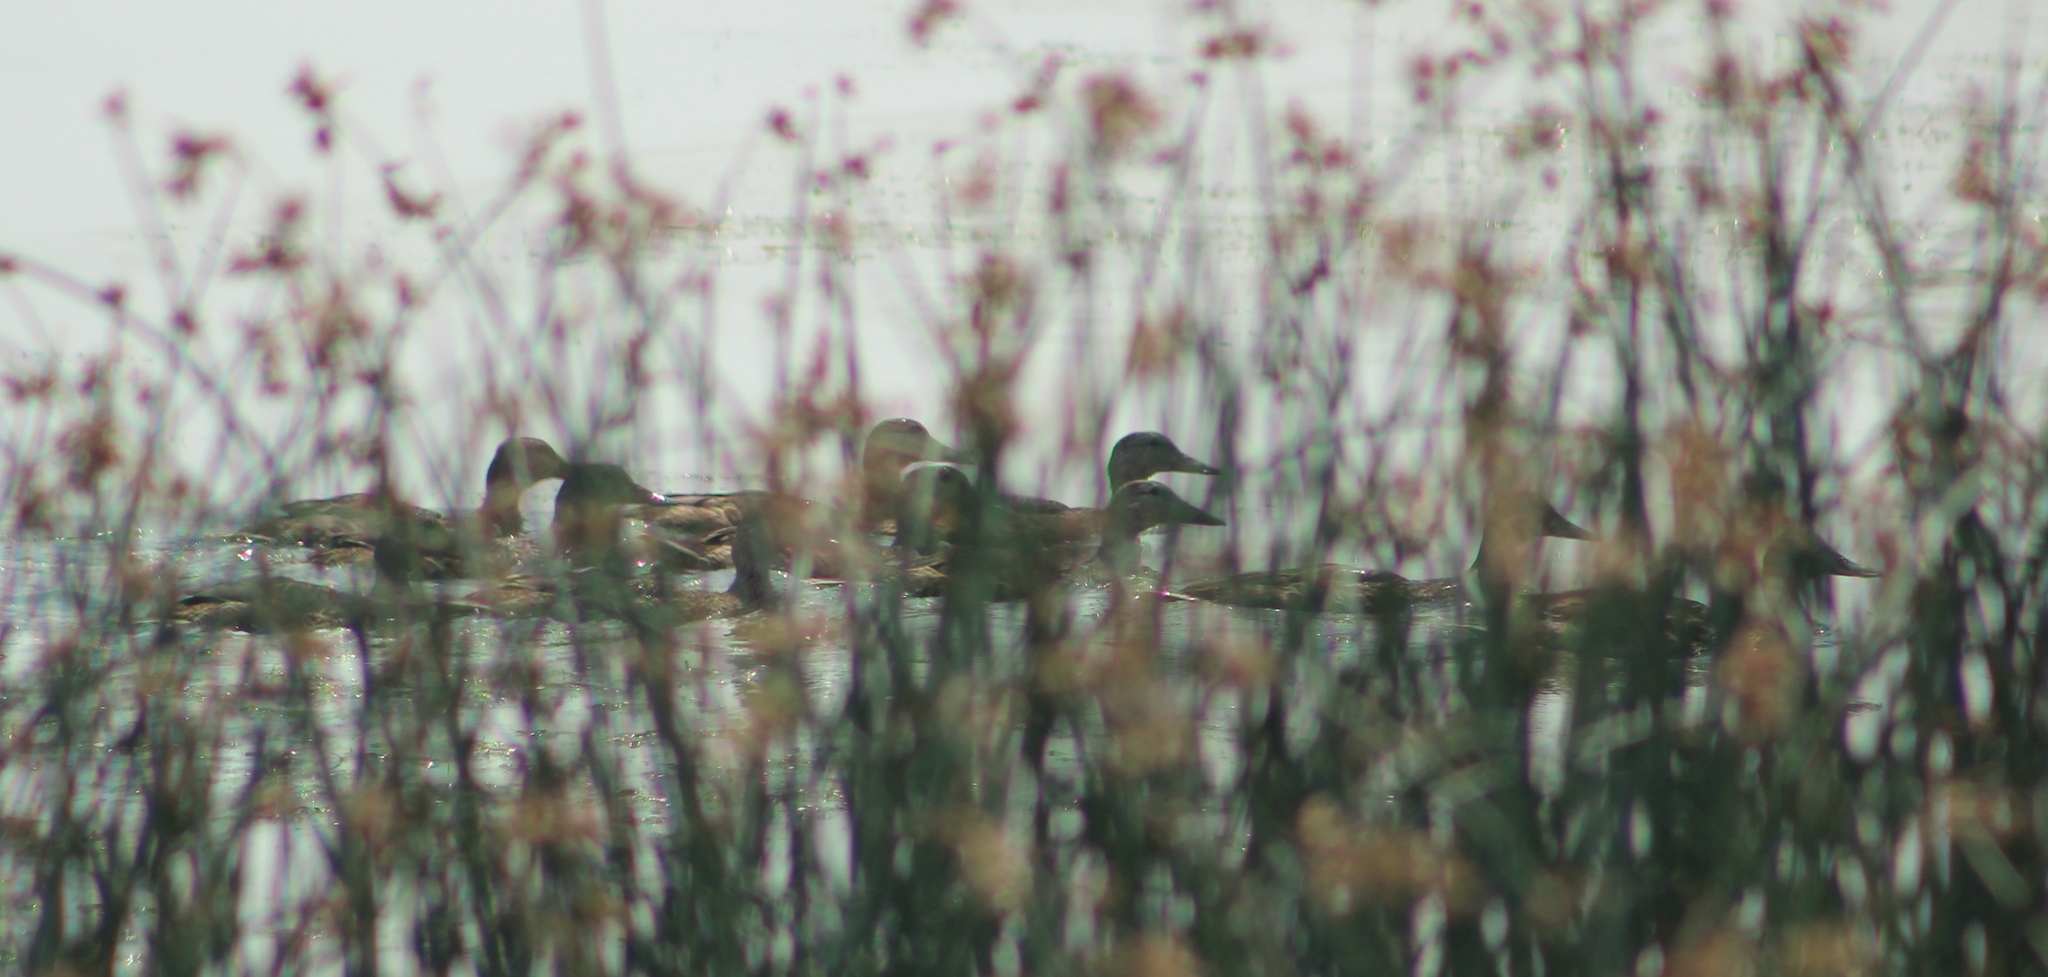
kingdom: Animalia
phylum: Chordata
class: Aves
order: Anseriformes
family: Anatidae
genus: Anas
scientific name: Anas platyrhynchos
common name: Mallard
